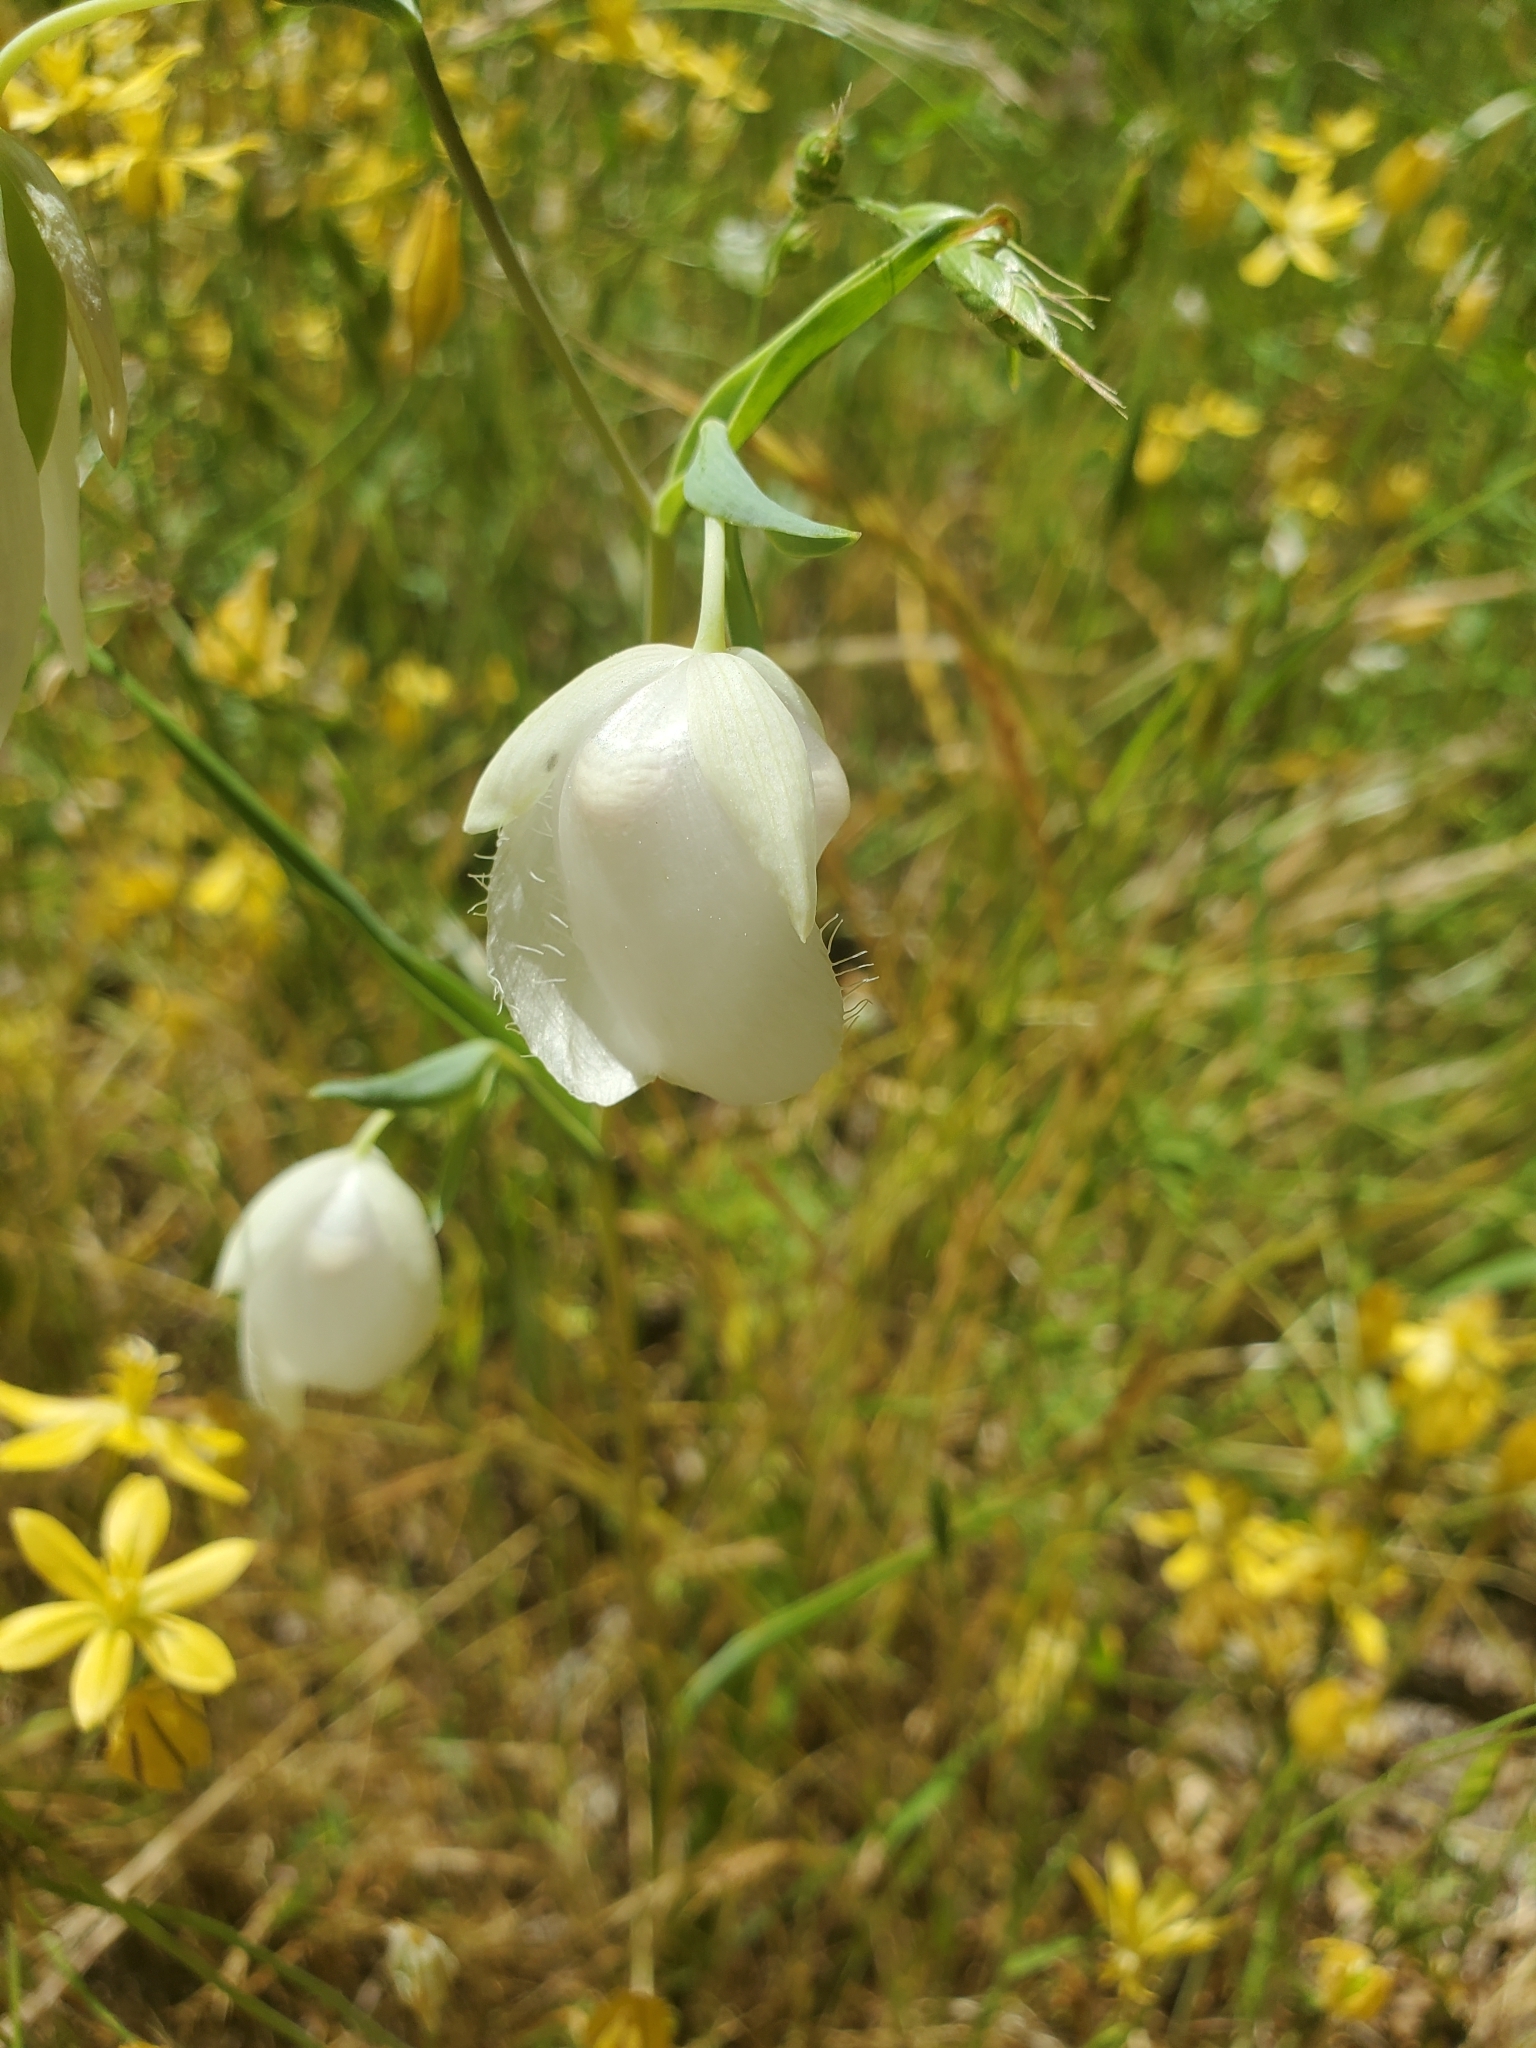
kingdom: Plantae
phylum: Tracheophyta
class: Liliopsida
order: Liliales
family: Liliaceae
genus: Calochortus
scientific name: Calochortus albus
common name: Fairy-lantern
